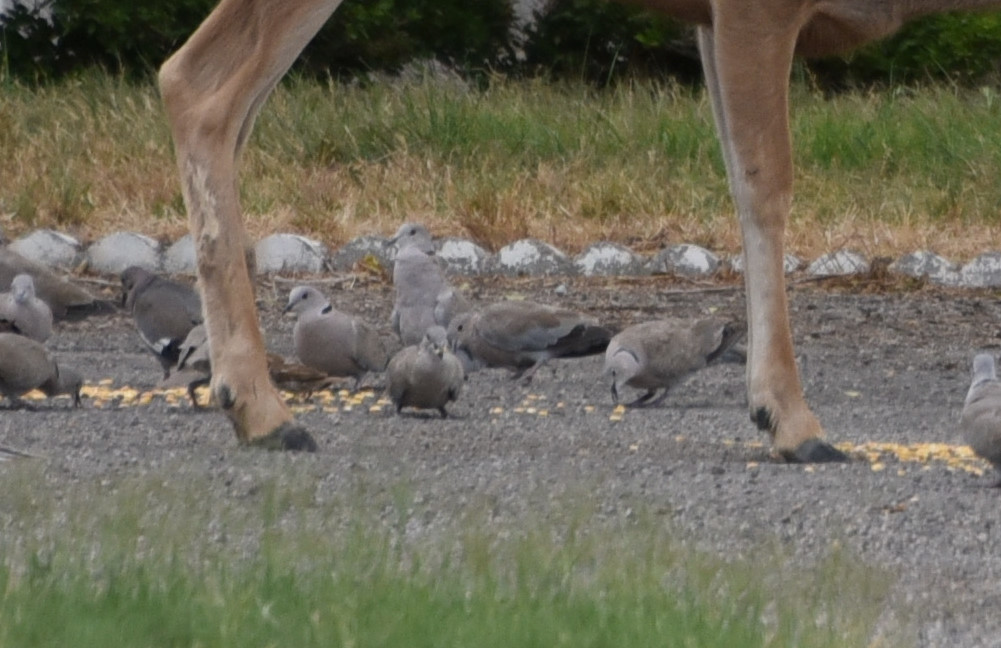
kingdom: Animalia
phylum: Chordata
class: Aves
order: Columbiformes
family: Columbidae
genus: Streptopelia
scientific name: Streptopelia decaocto
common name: Eurasian collared dove
